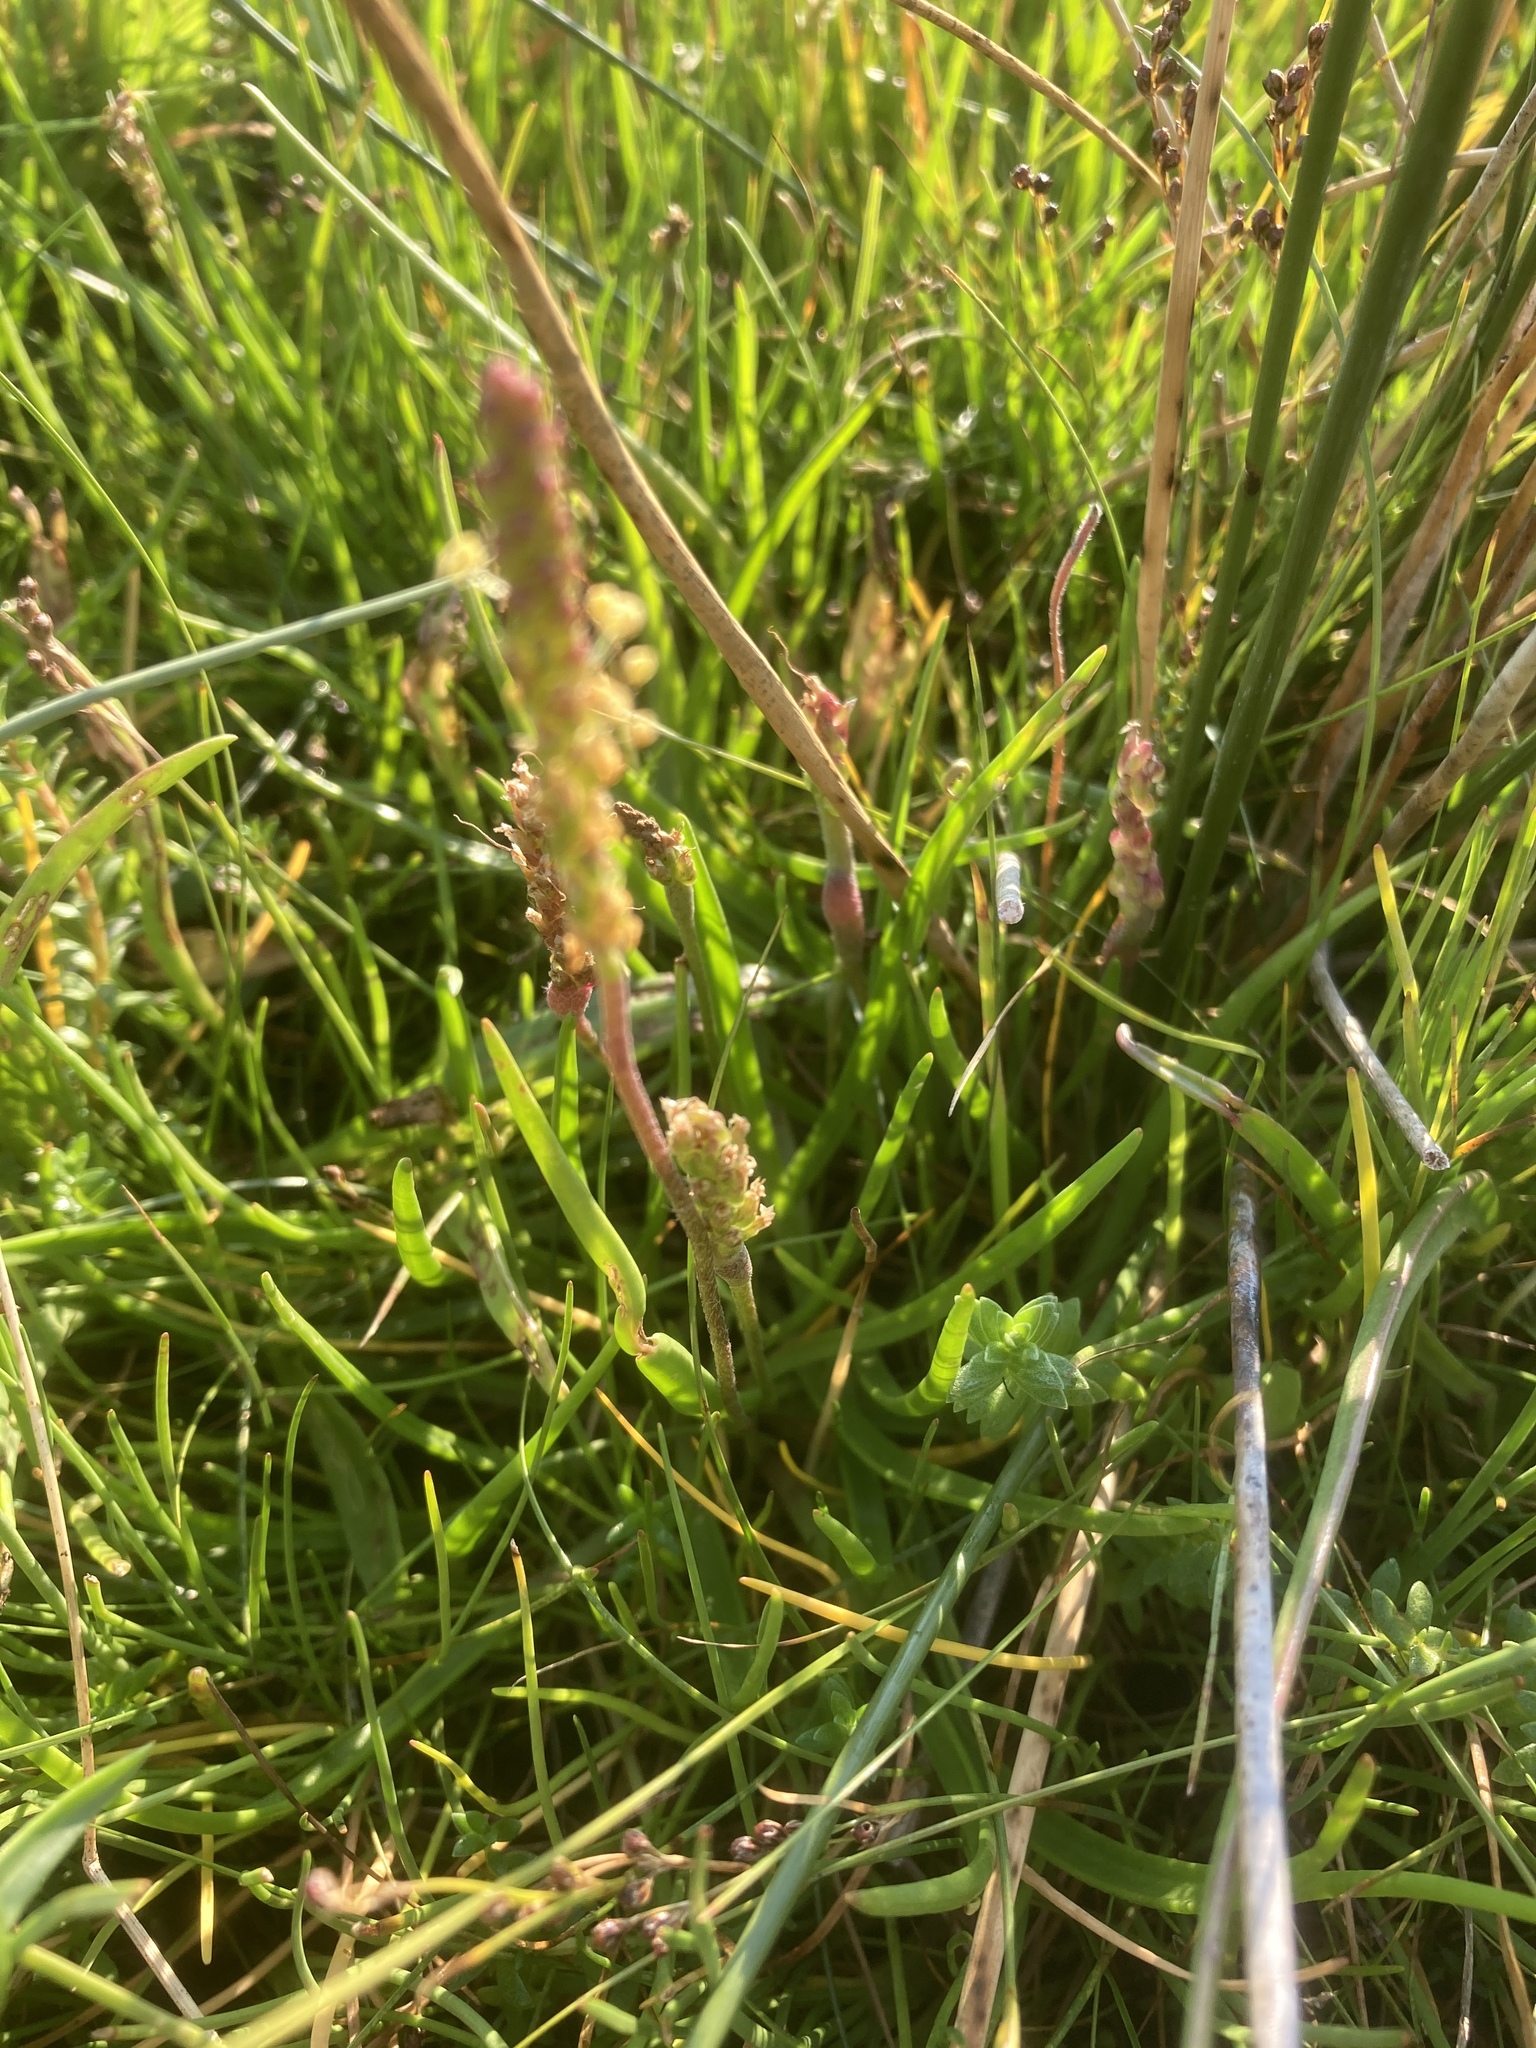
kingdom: Plantae
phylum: Tracheophyta
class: Magnoliopsida
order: Lamiales
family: Plantaginaceae
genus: Plantago
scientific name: Plantago maritima
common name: Sea plantain
